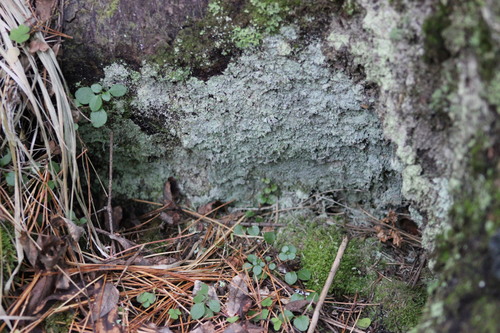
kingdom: Fungi
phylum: Ascomycota
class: Lecanoromycetes
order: Lecanorales
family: Stereocaulaceae
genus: Lepraria
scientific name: Lepraria lobificans
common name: Fluffy dust lichen
